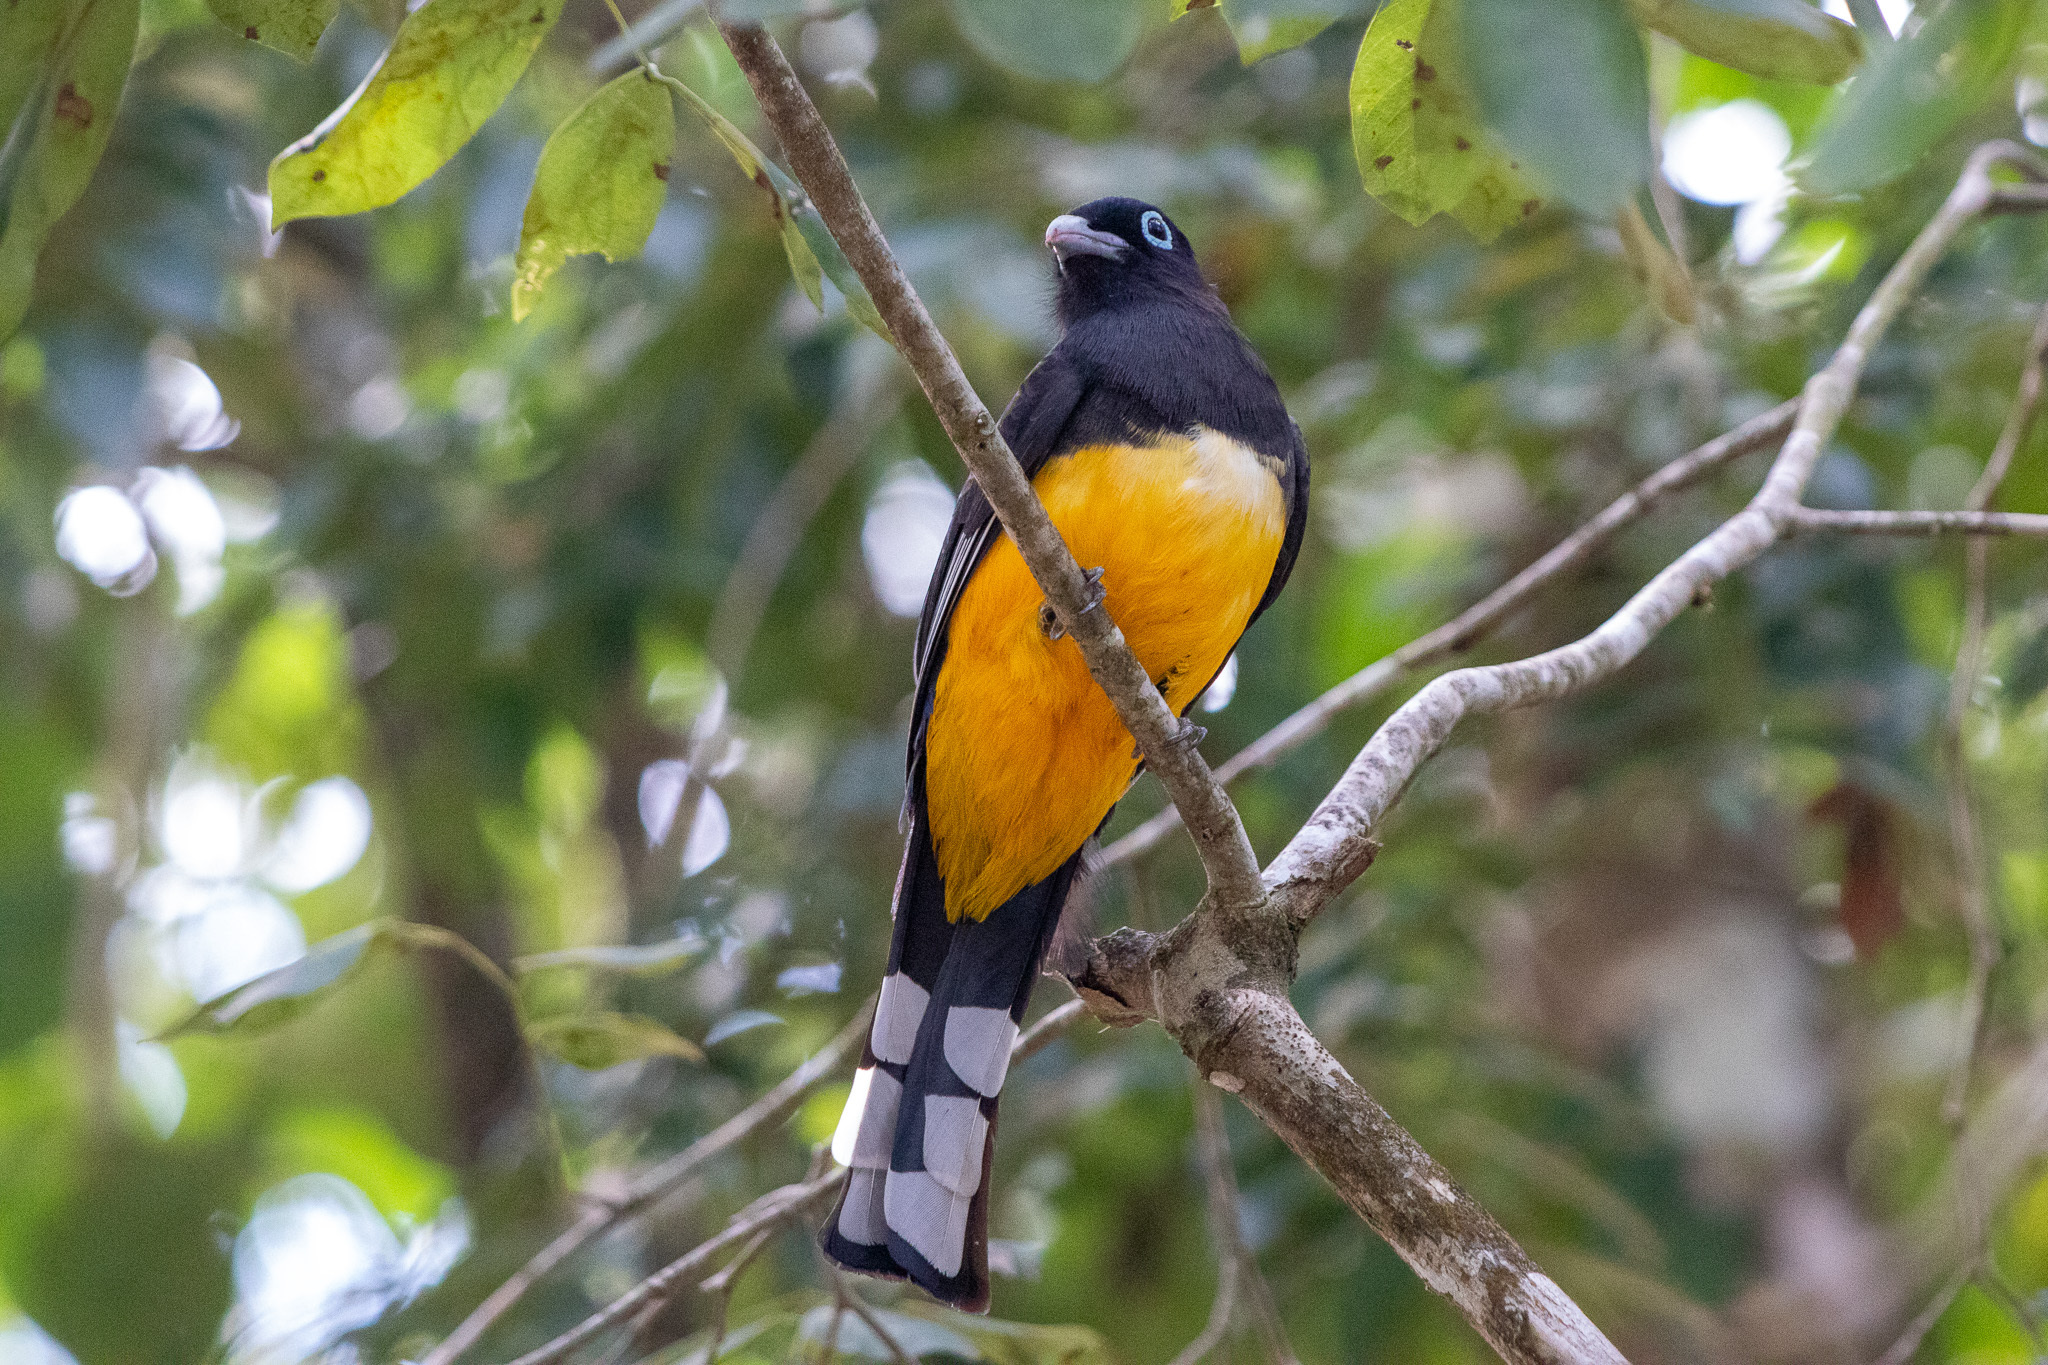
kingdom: Animalia
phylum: Chordata
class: Aves
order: Trogoniformes
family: Trogonidae
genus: Trogon
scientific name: Trogon melanocephalus
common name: Black-headed trogon
